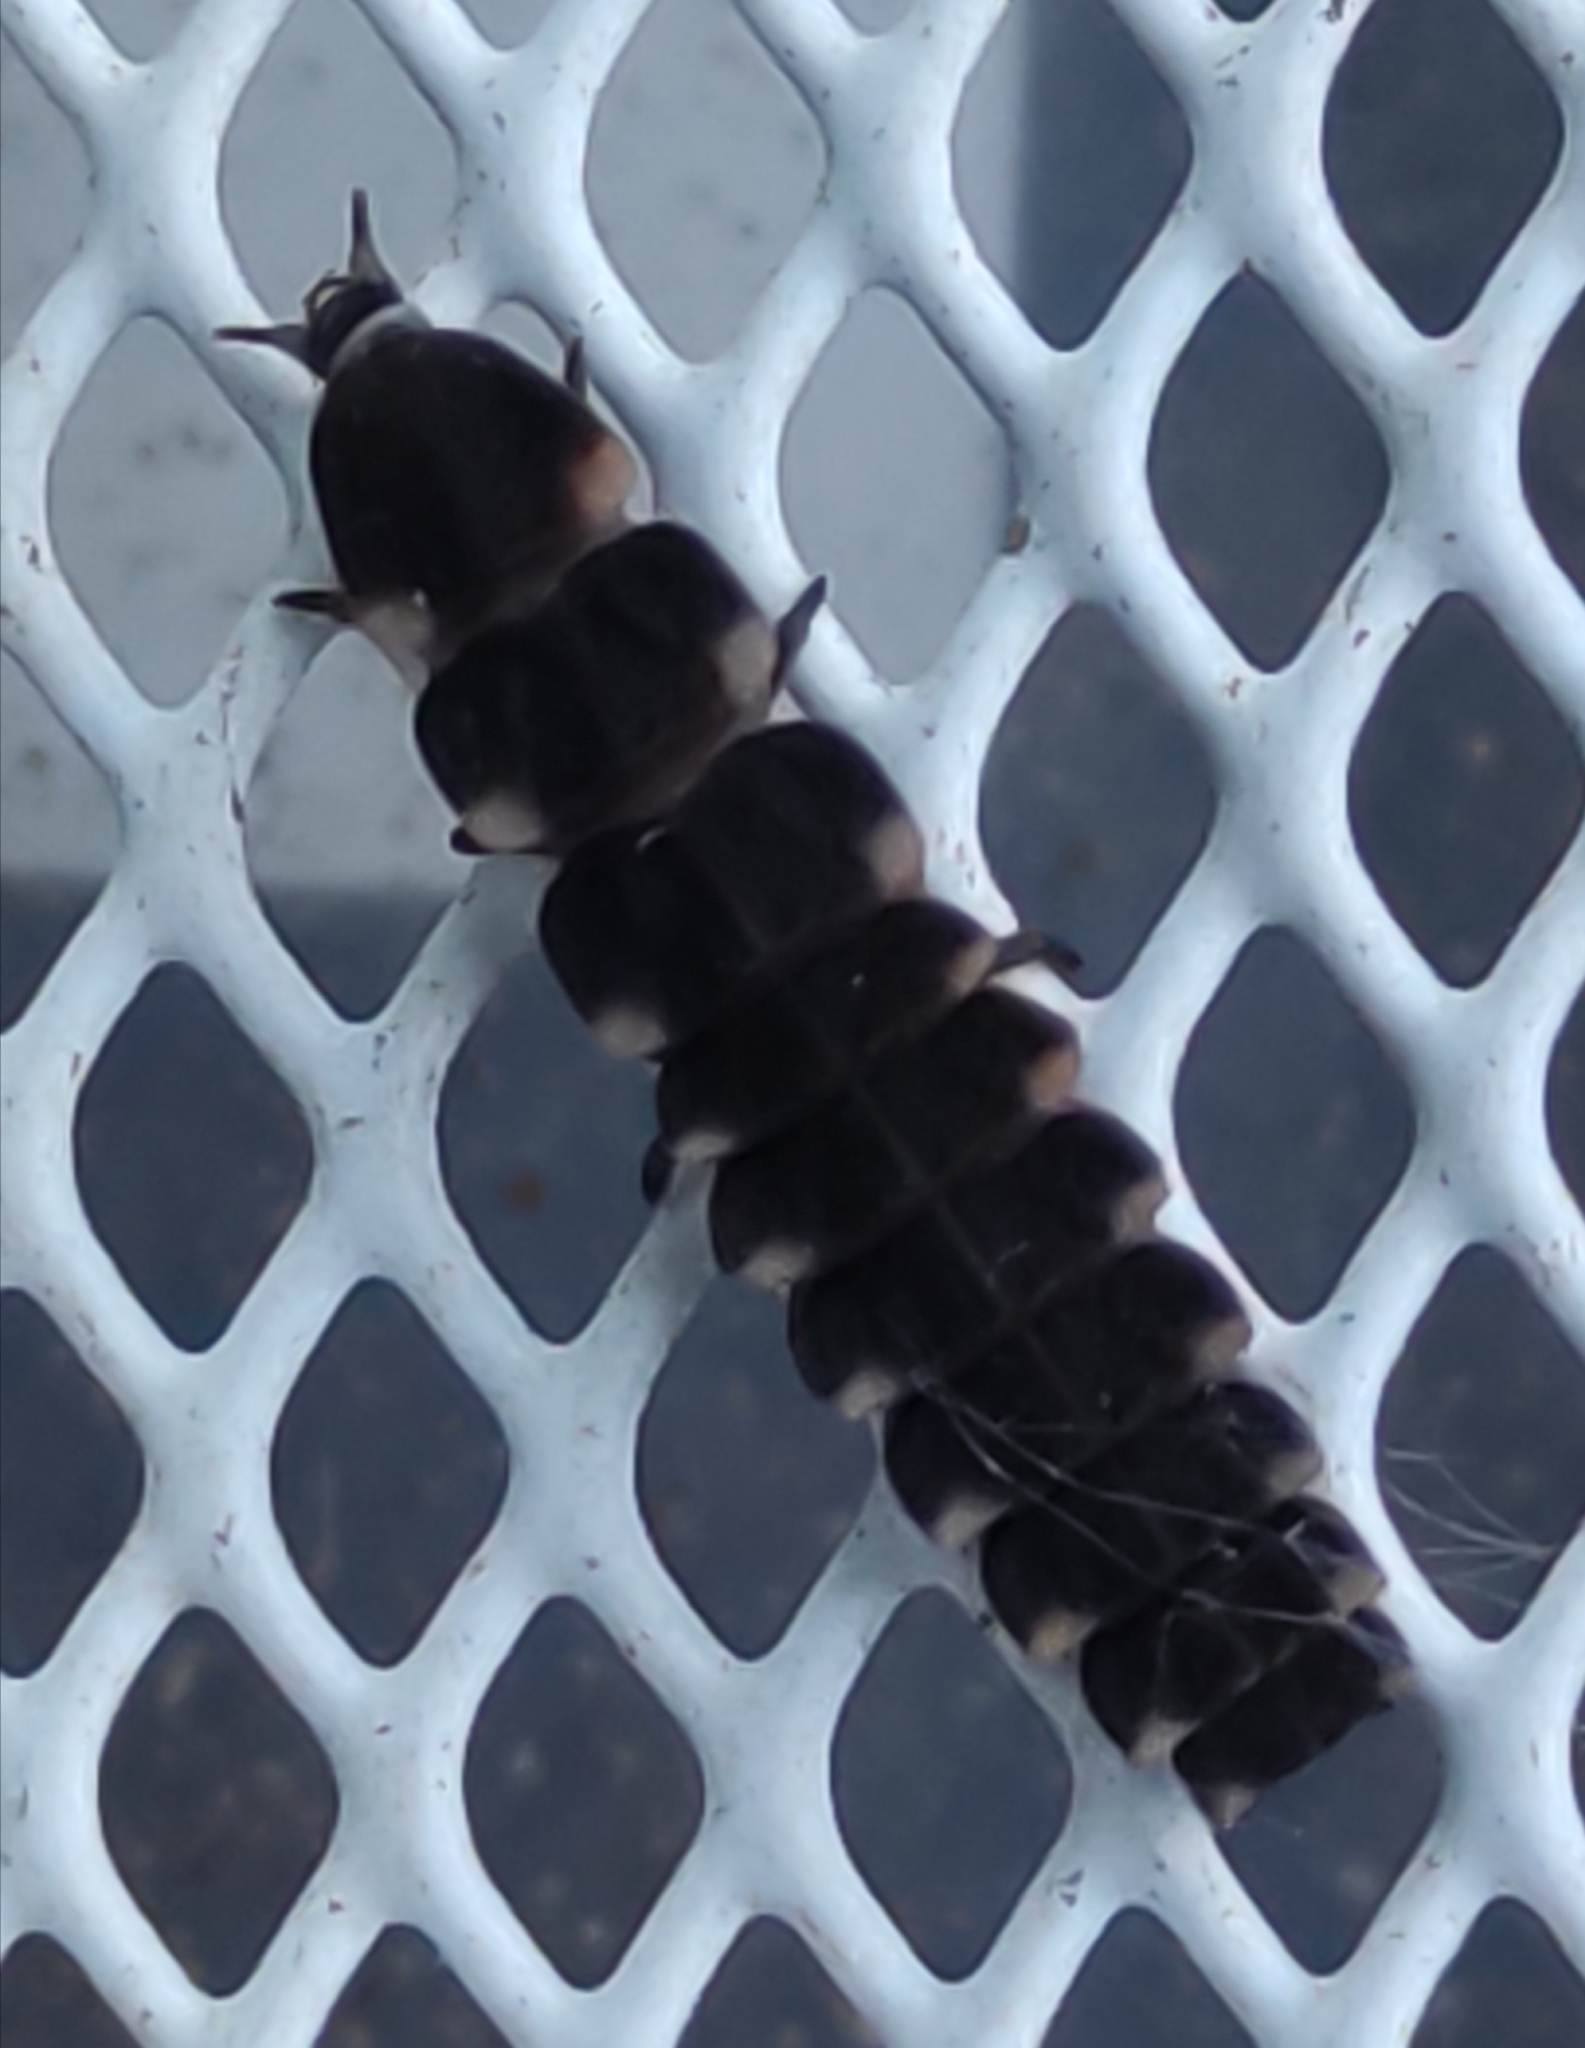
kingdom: Animalia
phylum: Arthropoda
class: Insecta
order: Coleoptera
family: Lampyridae
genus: Lampyris
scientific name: Lampyris noctiluca
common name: Glow-worm
